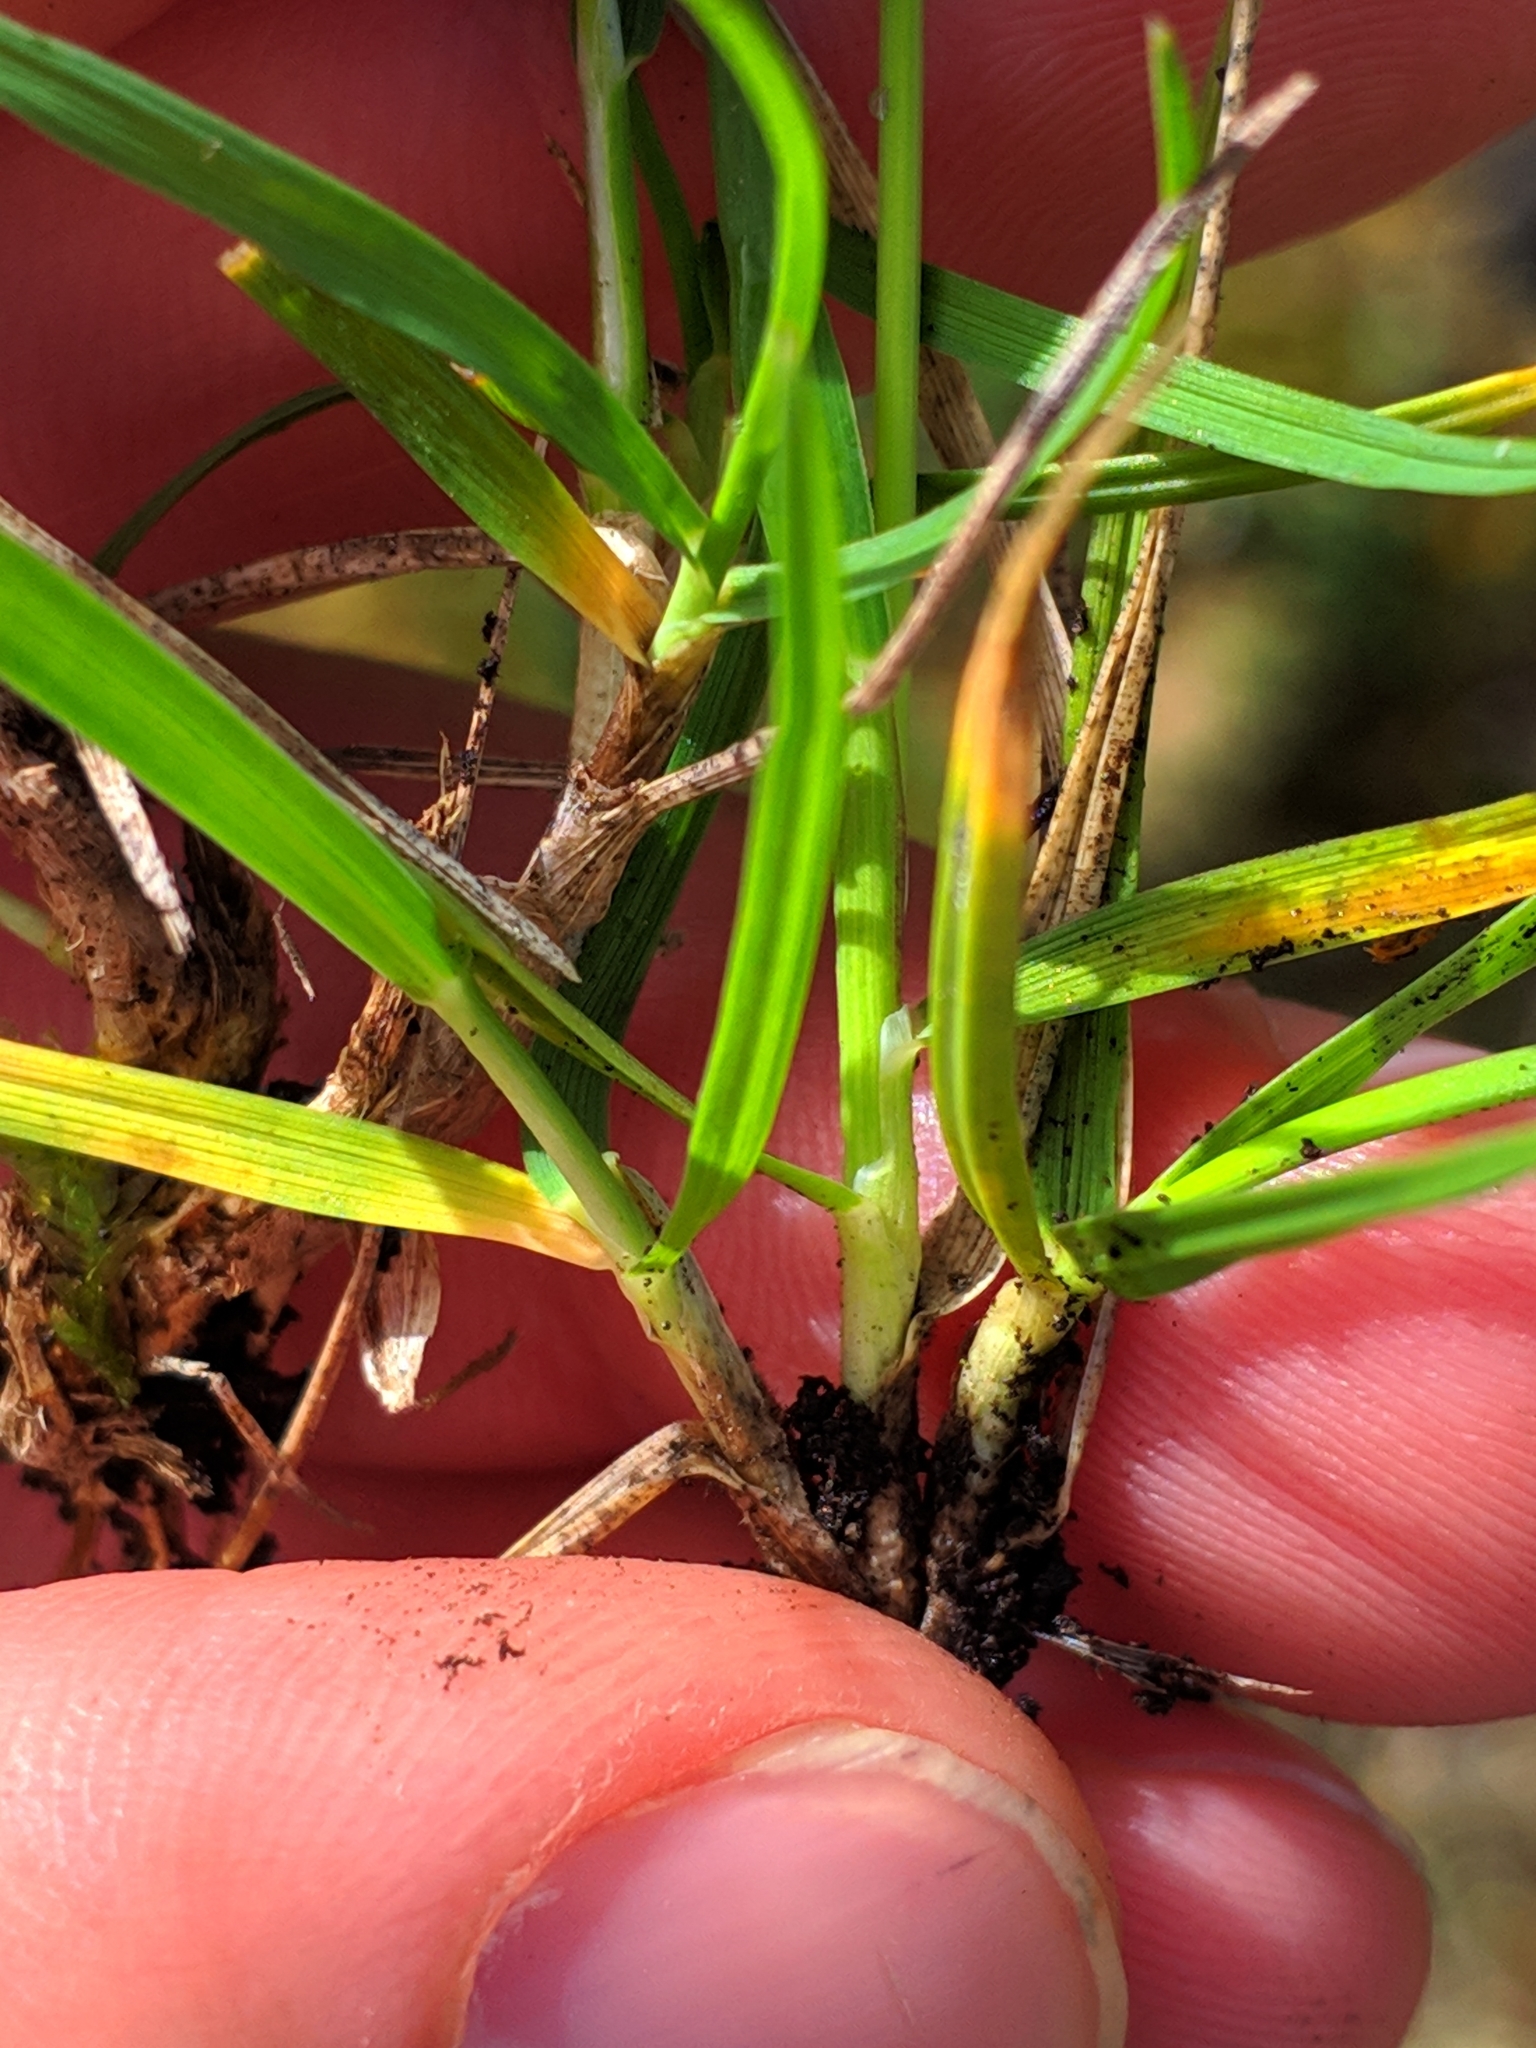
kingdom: Plantae
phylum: Tracheophyta
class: Liliopsida
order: Poales
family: Poaceae
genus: Oreochloa
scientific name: Oreochloa confusa
